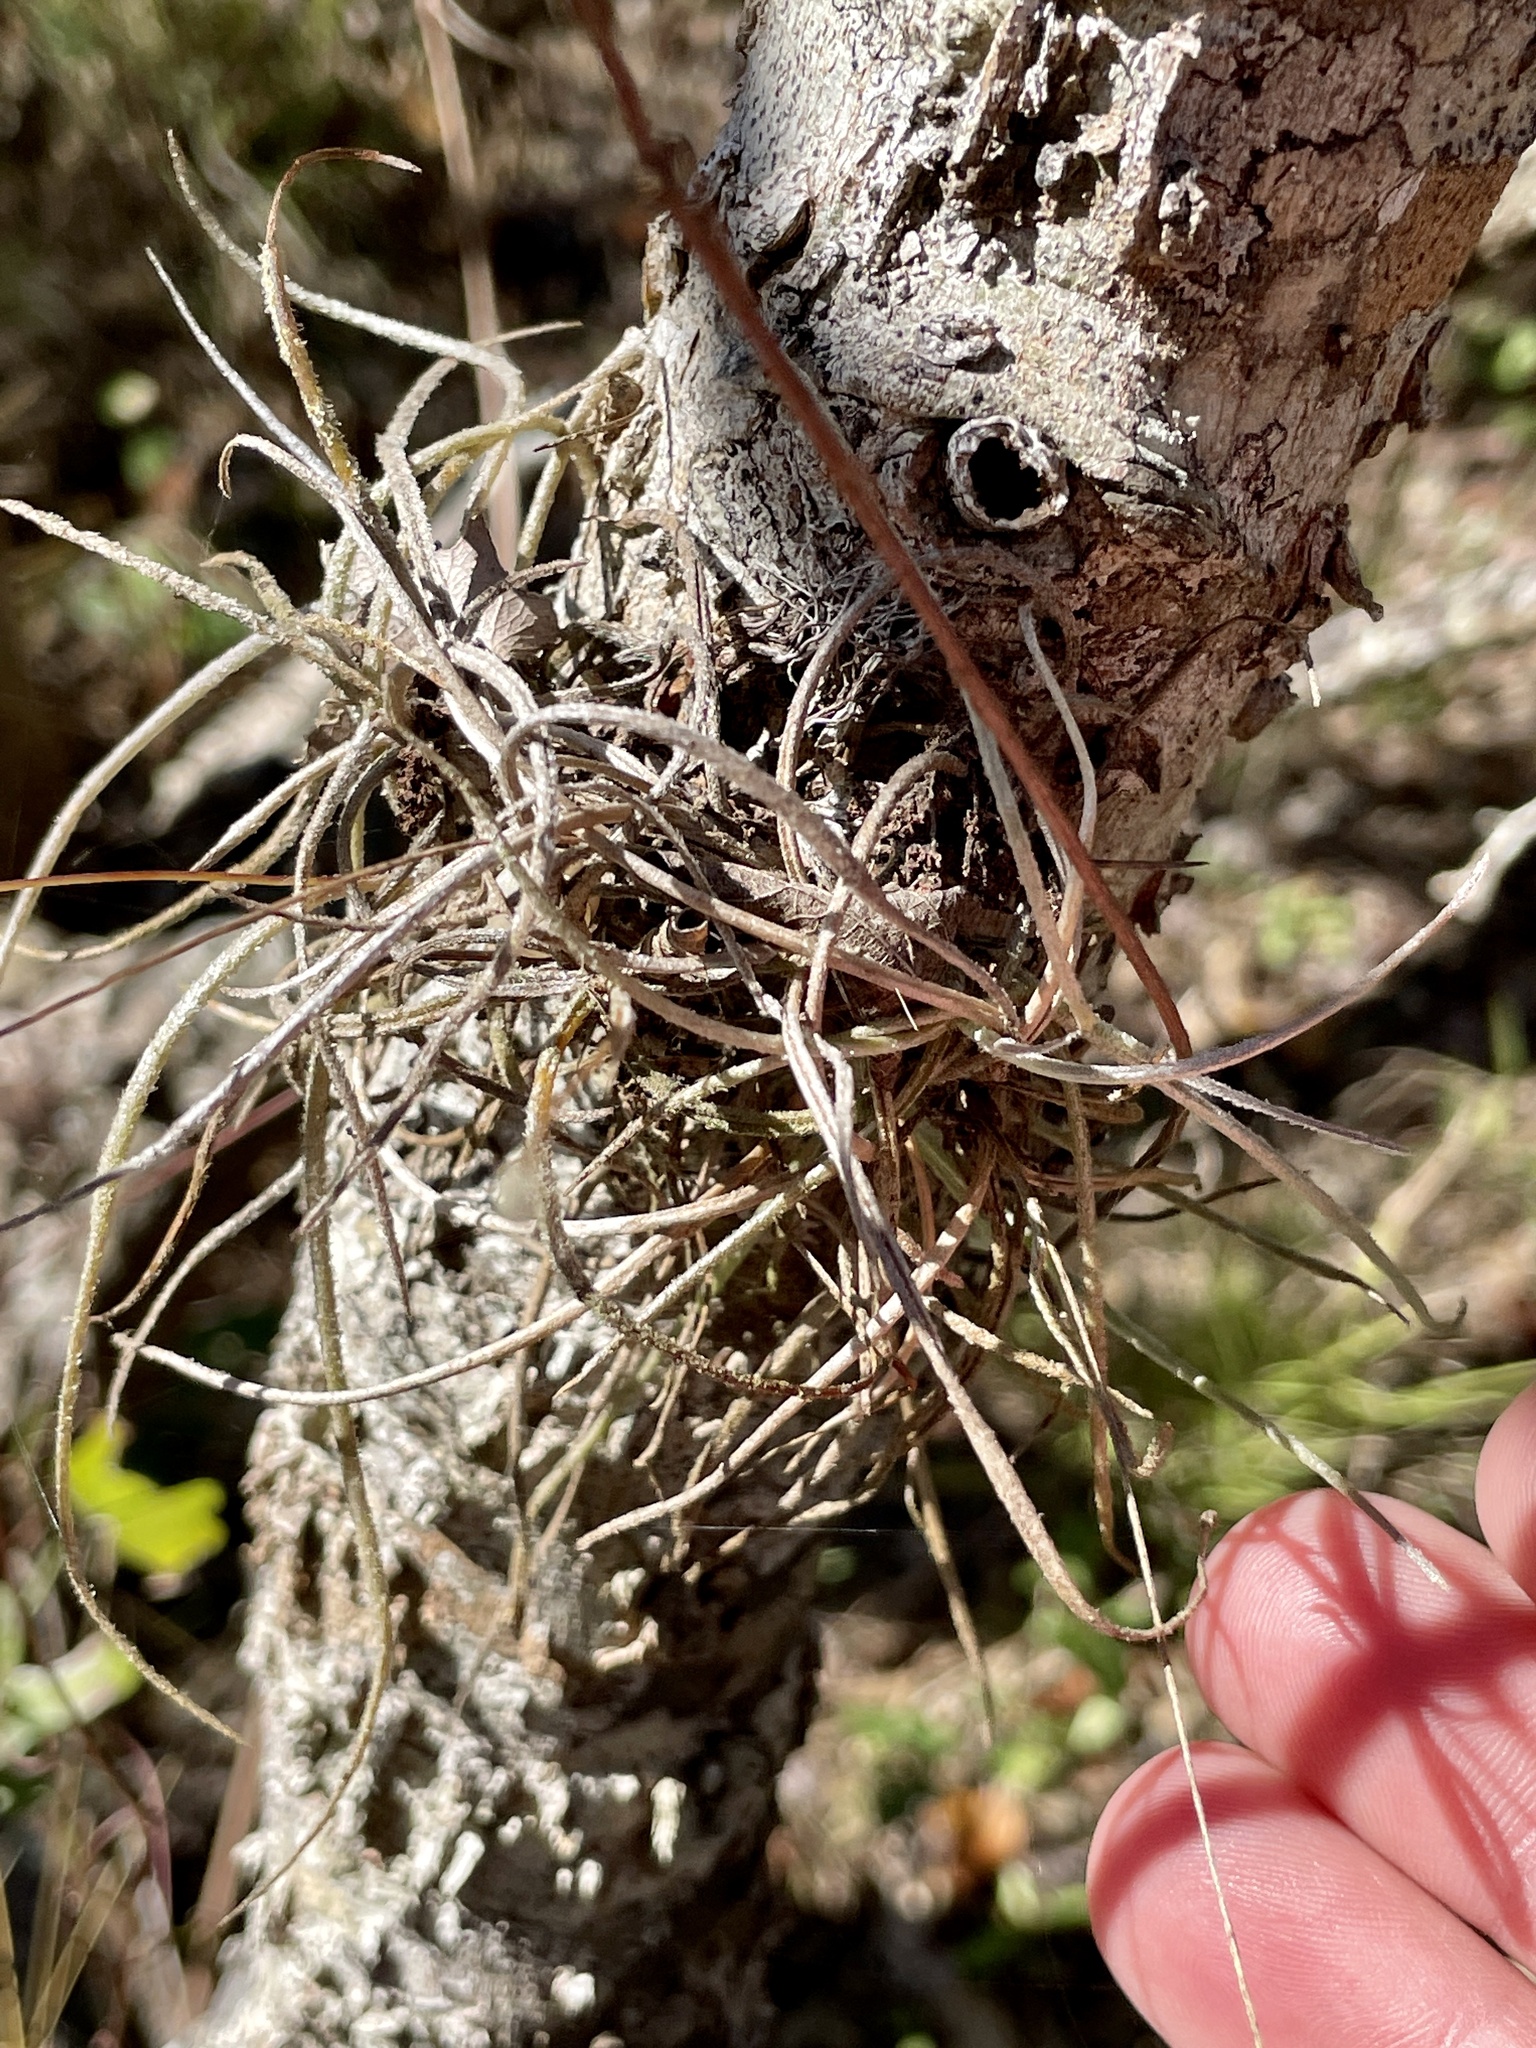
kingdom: Plantae
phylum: Tracheophyta
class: Liliopsida
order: Poales
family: Bromeliaceae
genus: Tillandsia
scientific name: Tillandsia recurvata
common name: Small ballmoss
